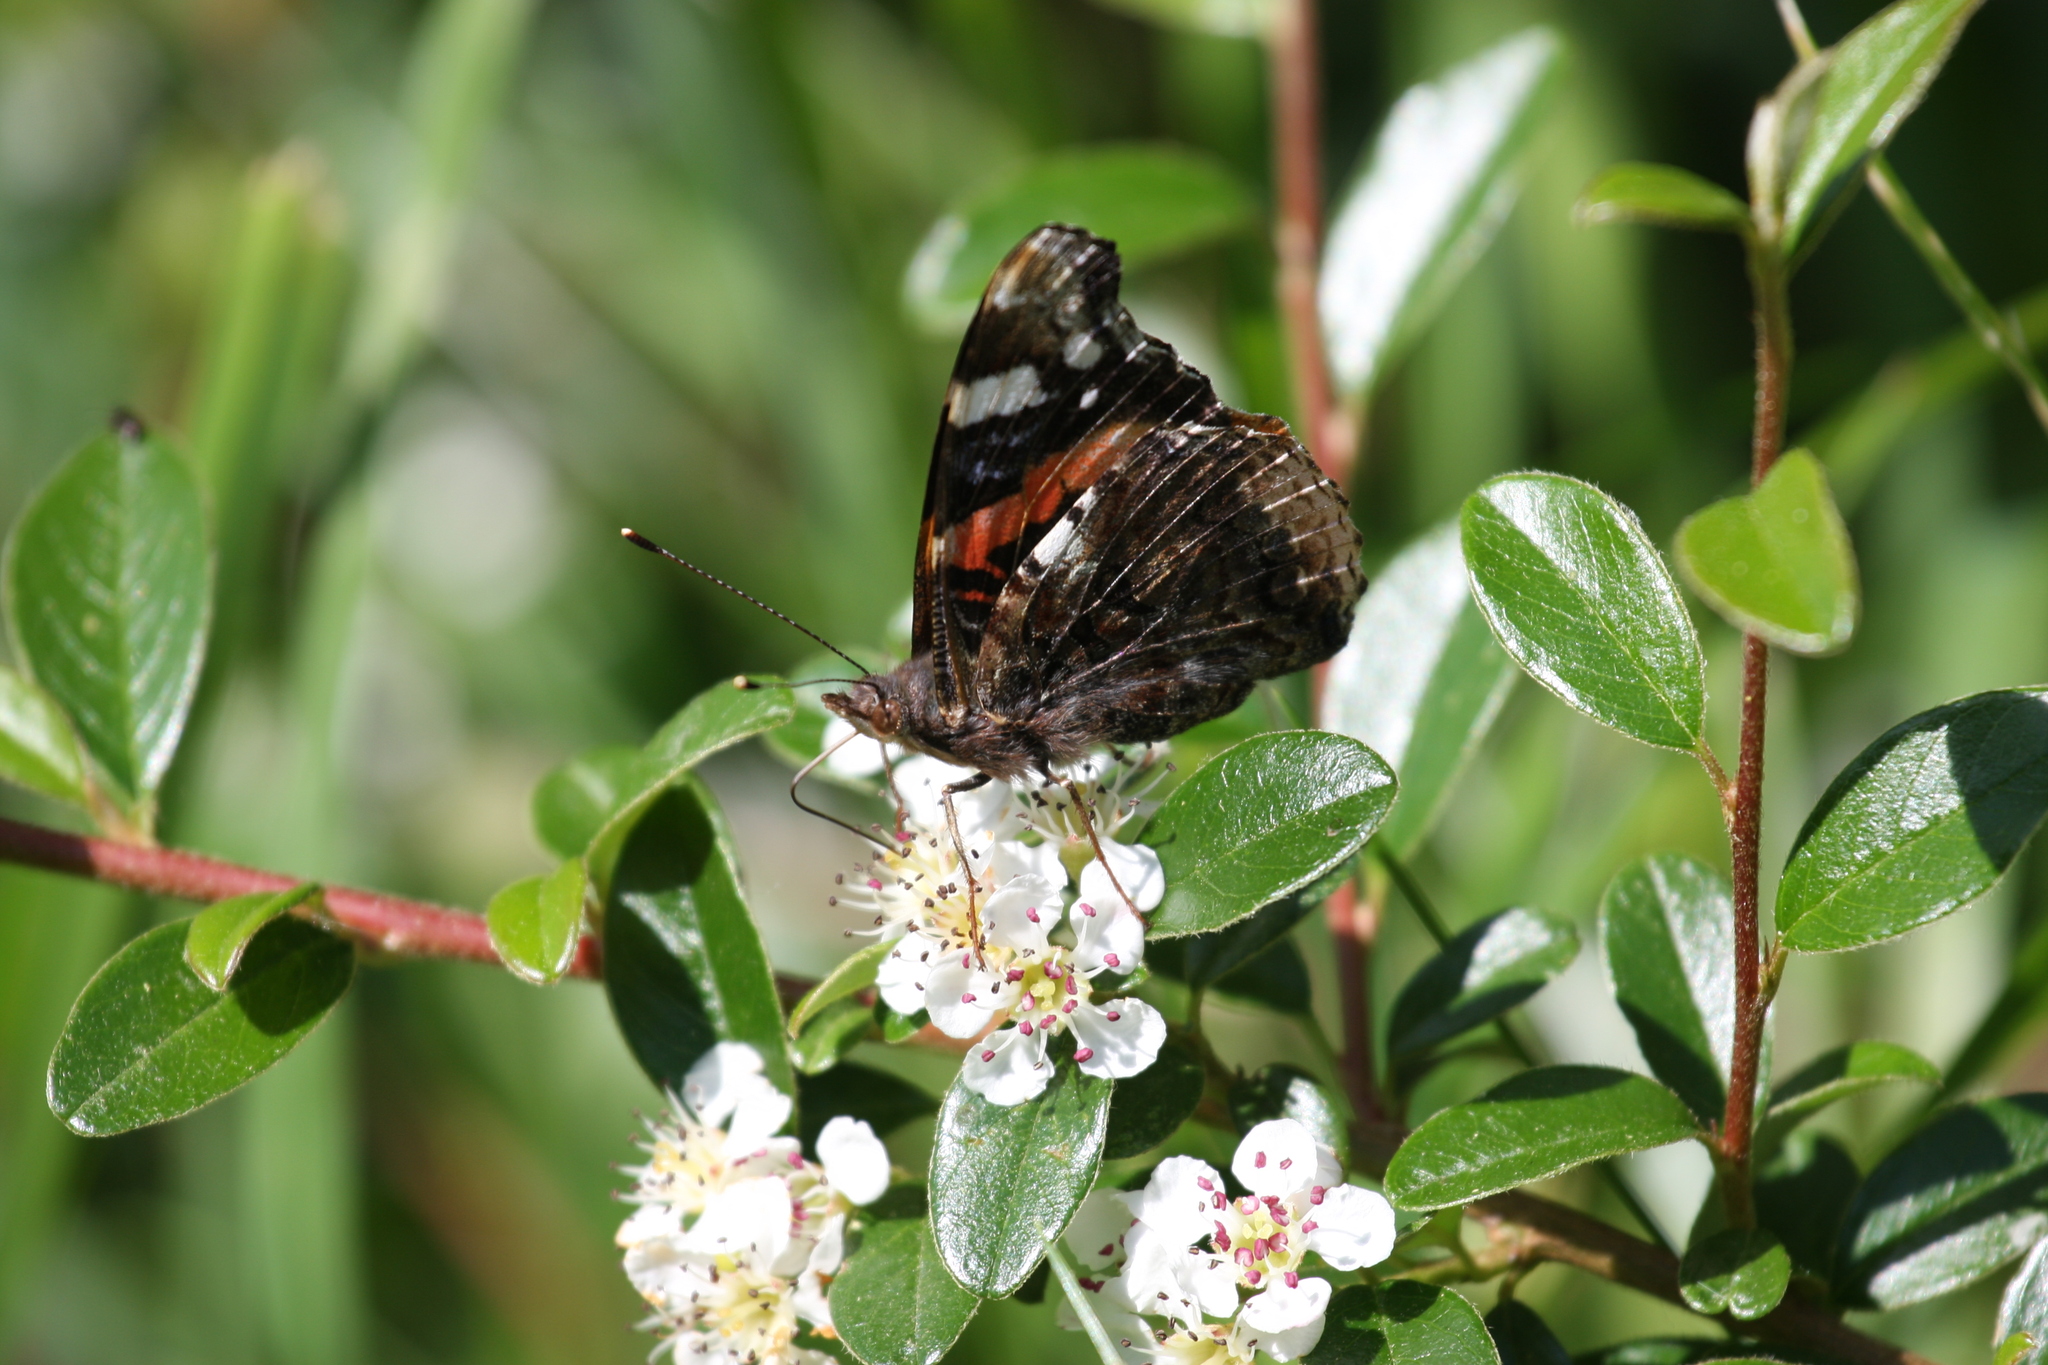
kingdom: Animalia
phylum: Arthropoda
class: Insecta
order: Lepidoptera
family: Nymphalidae
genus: Vanessa
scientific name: Vanessa atalanta
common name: Red admiral
